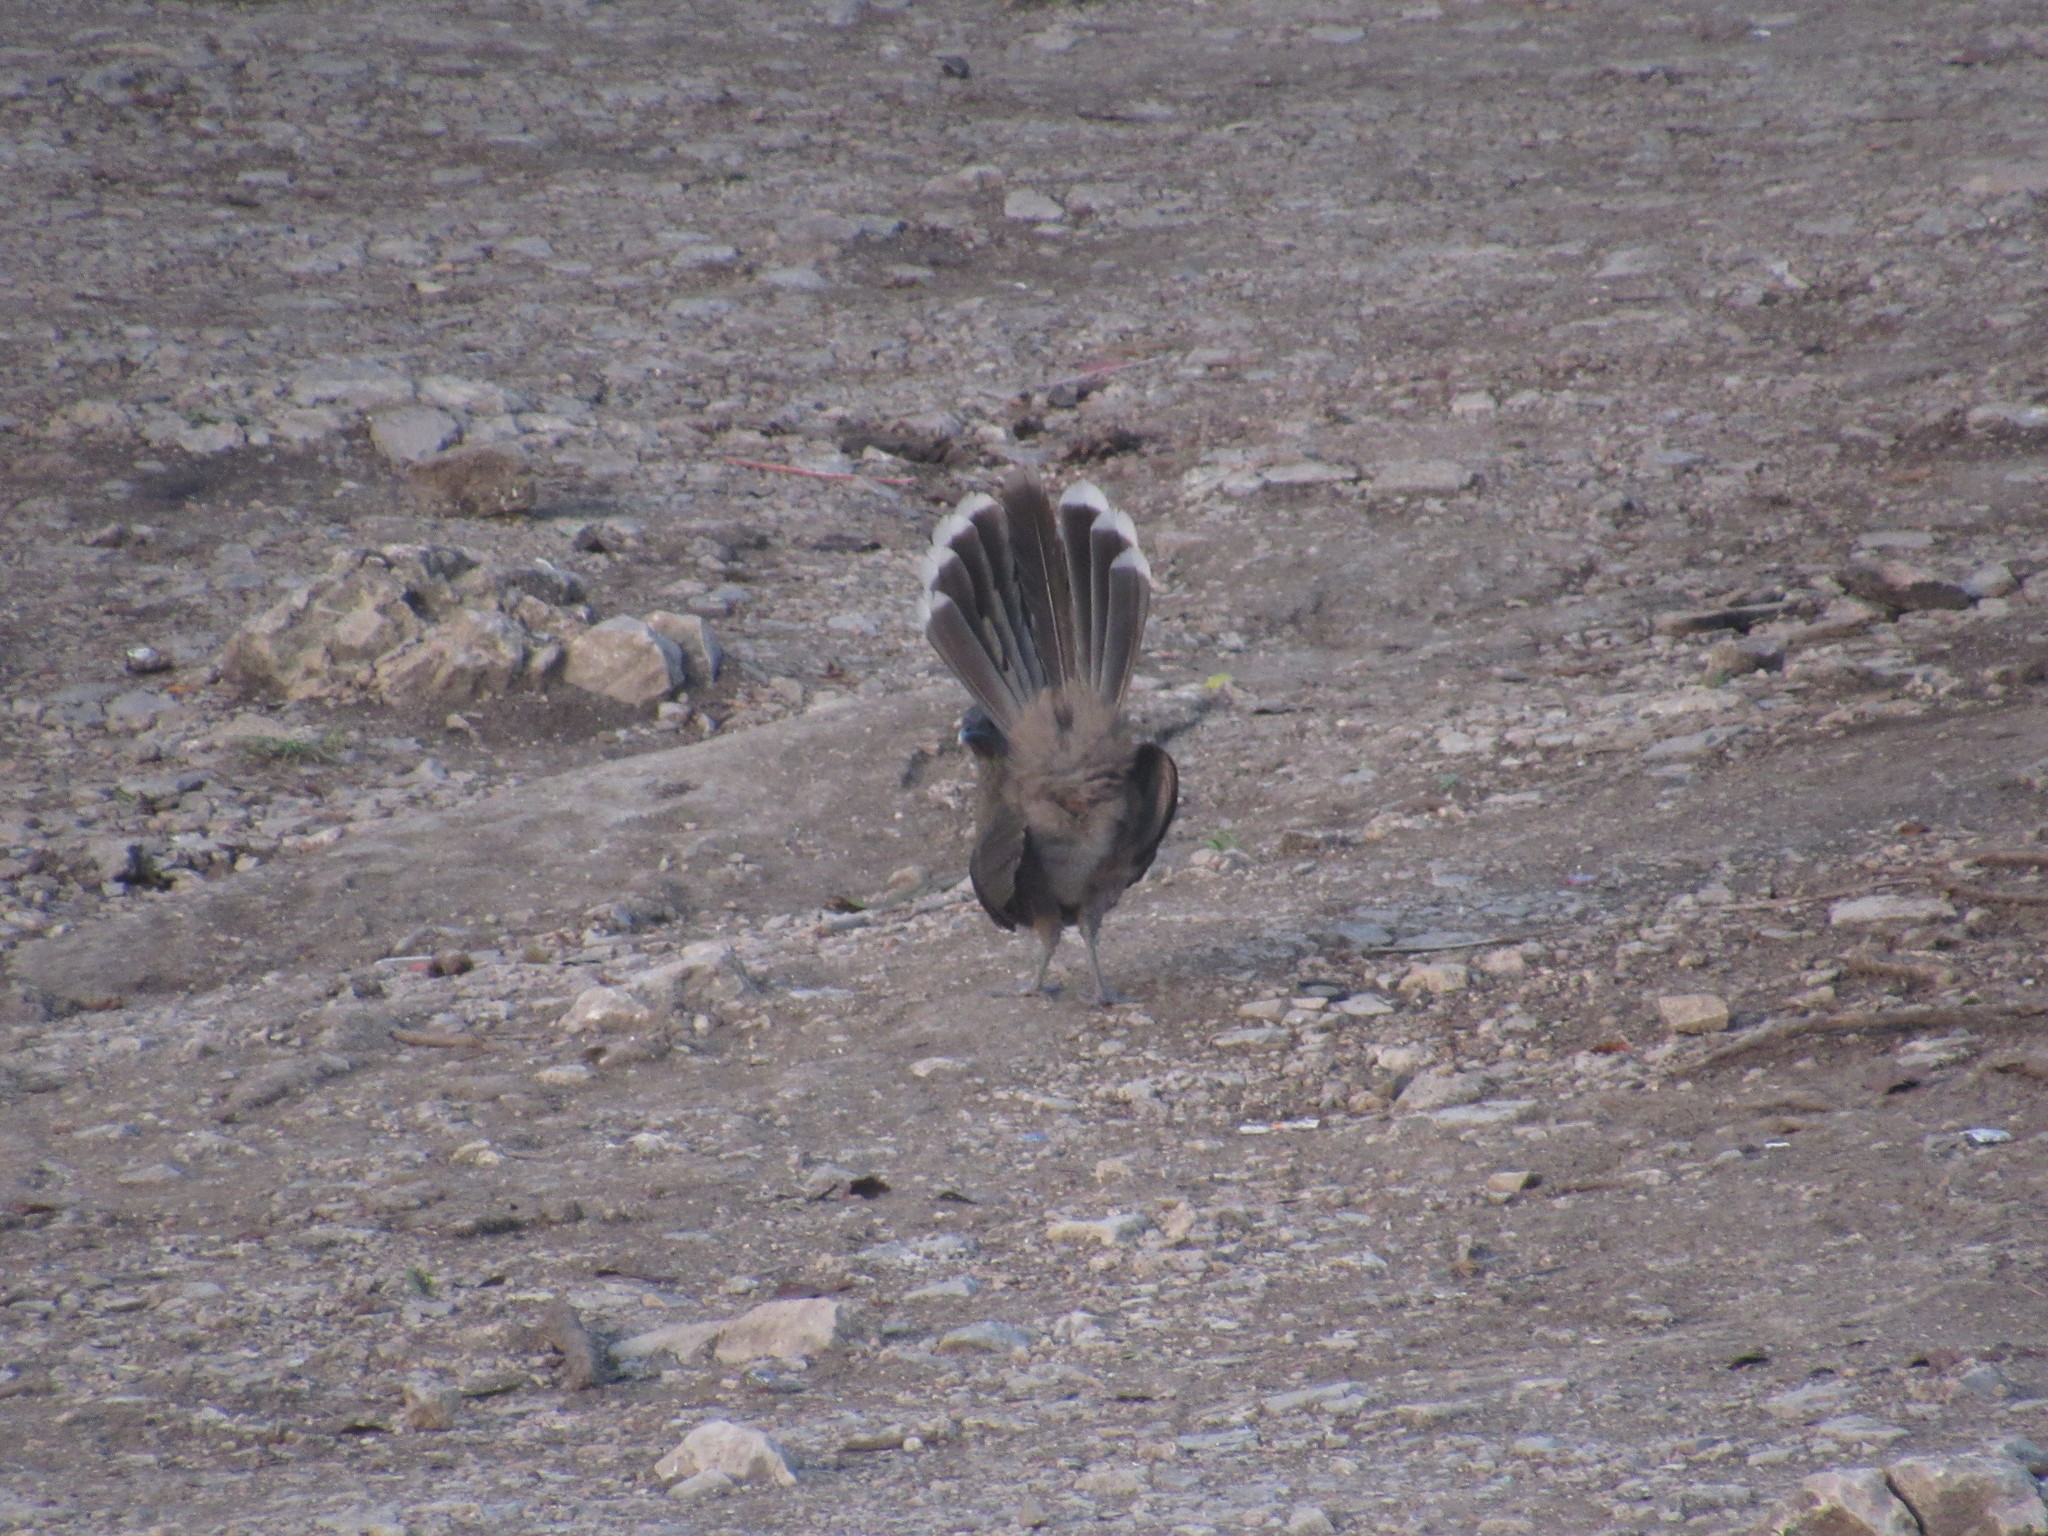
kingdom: Animalia
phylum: Chordata
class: Aves
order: Galliformes
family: Cracidae
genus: Ortalis
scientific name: Ortalis vetula
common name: Plain chachalaca
